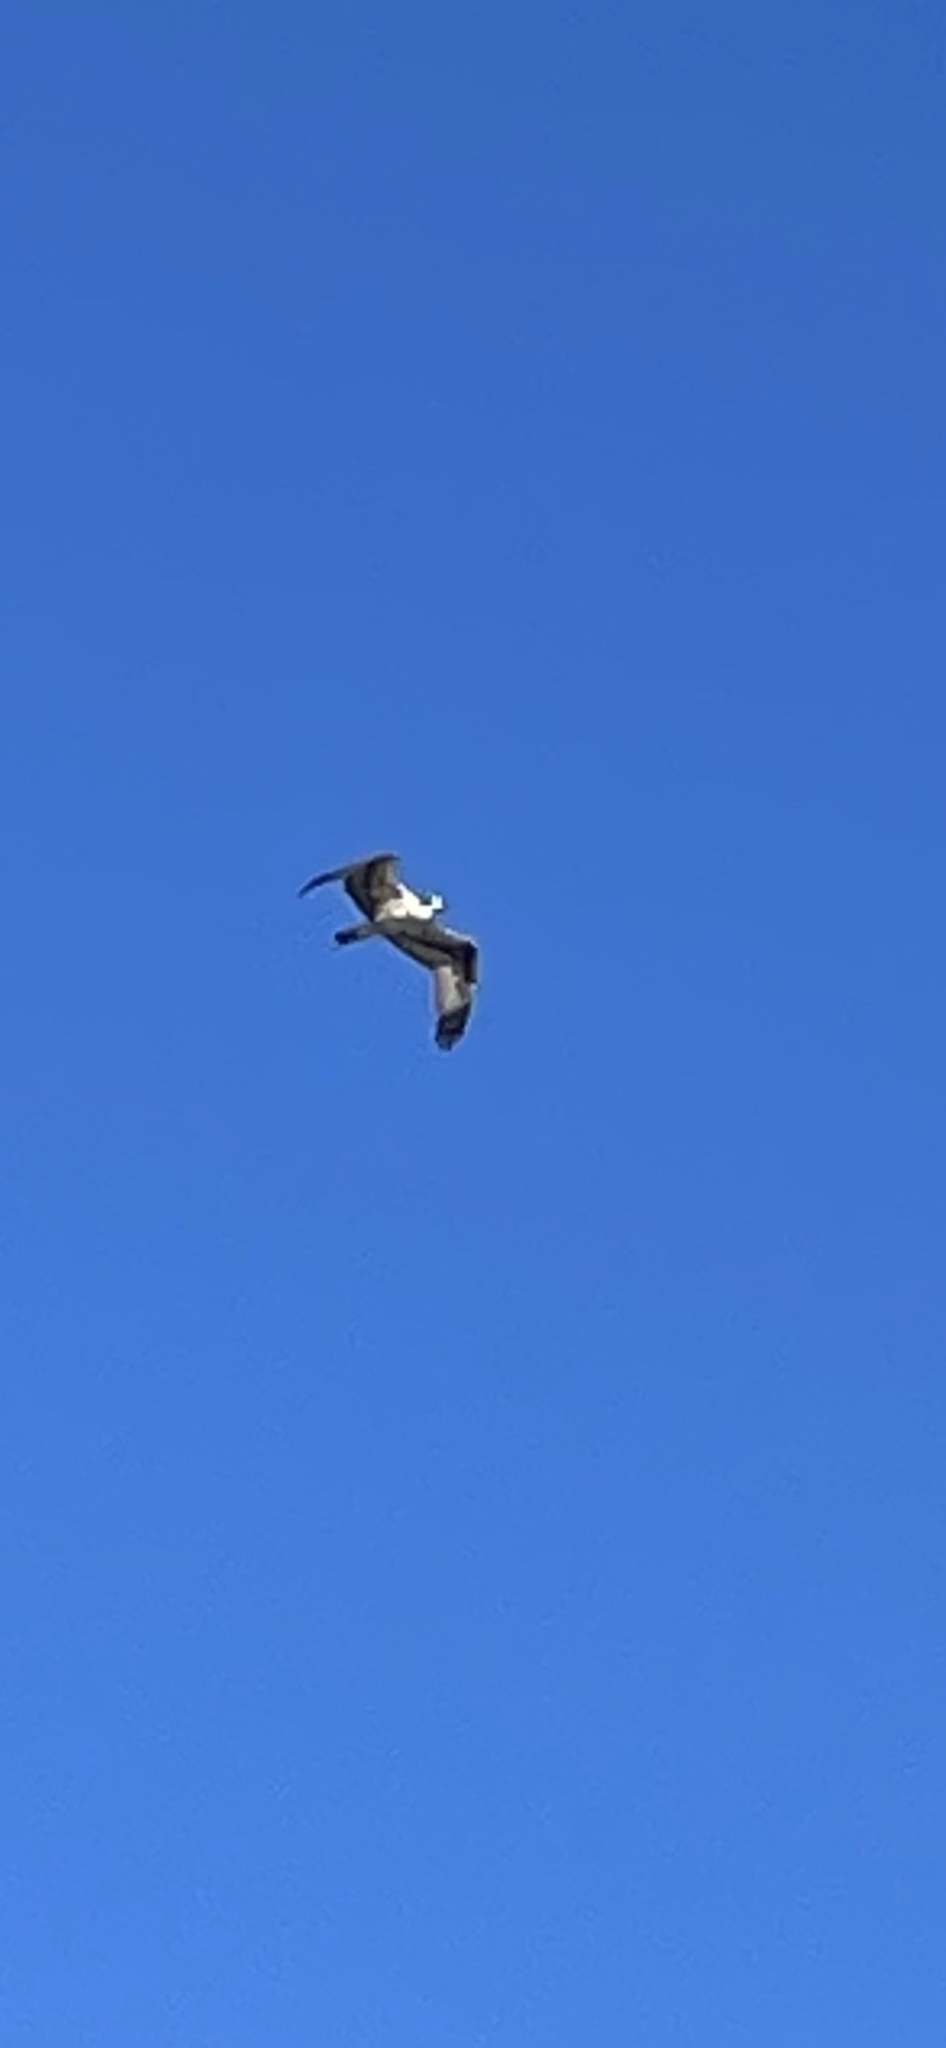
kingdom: Animalia
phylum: Chordata
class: Aves
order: Accipitriformes
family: Pandionidae
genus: Pandion
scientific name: Pandion haliaetus
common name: Osprey
